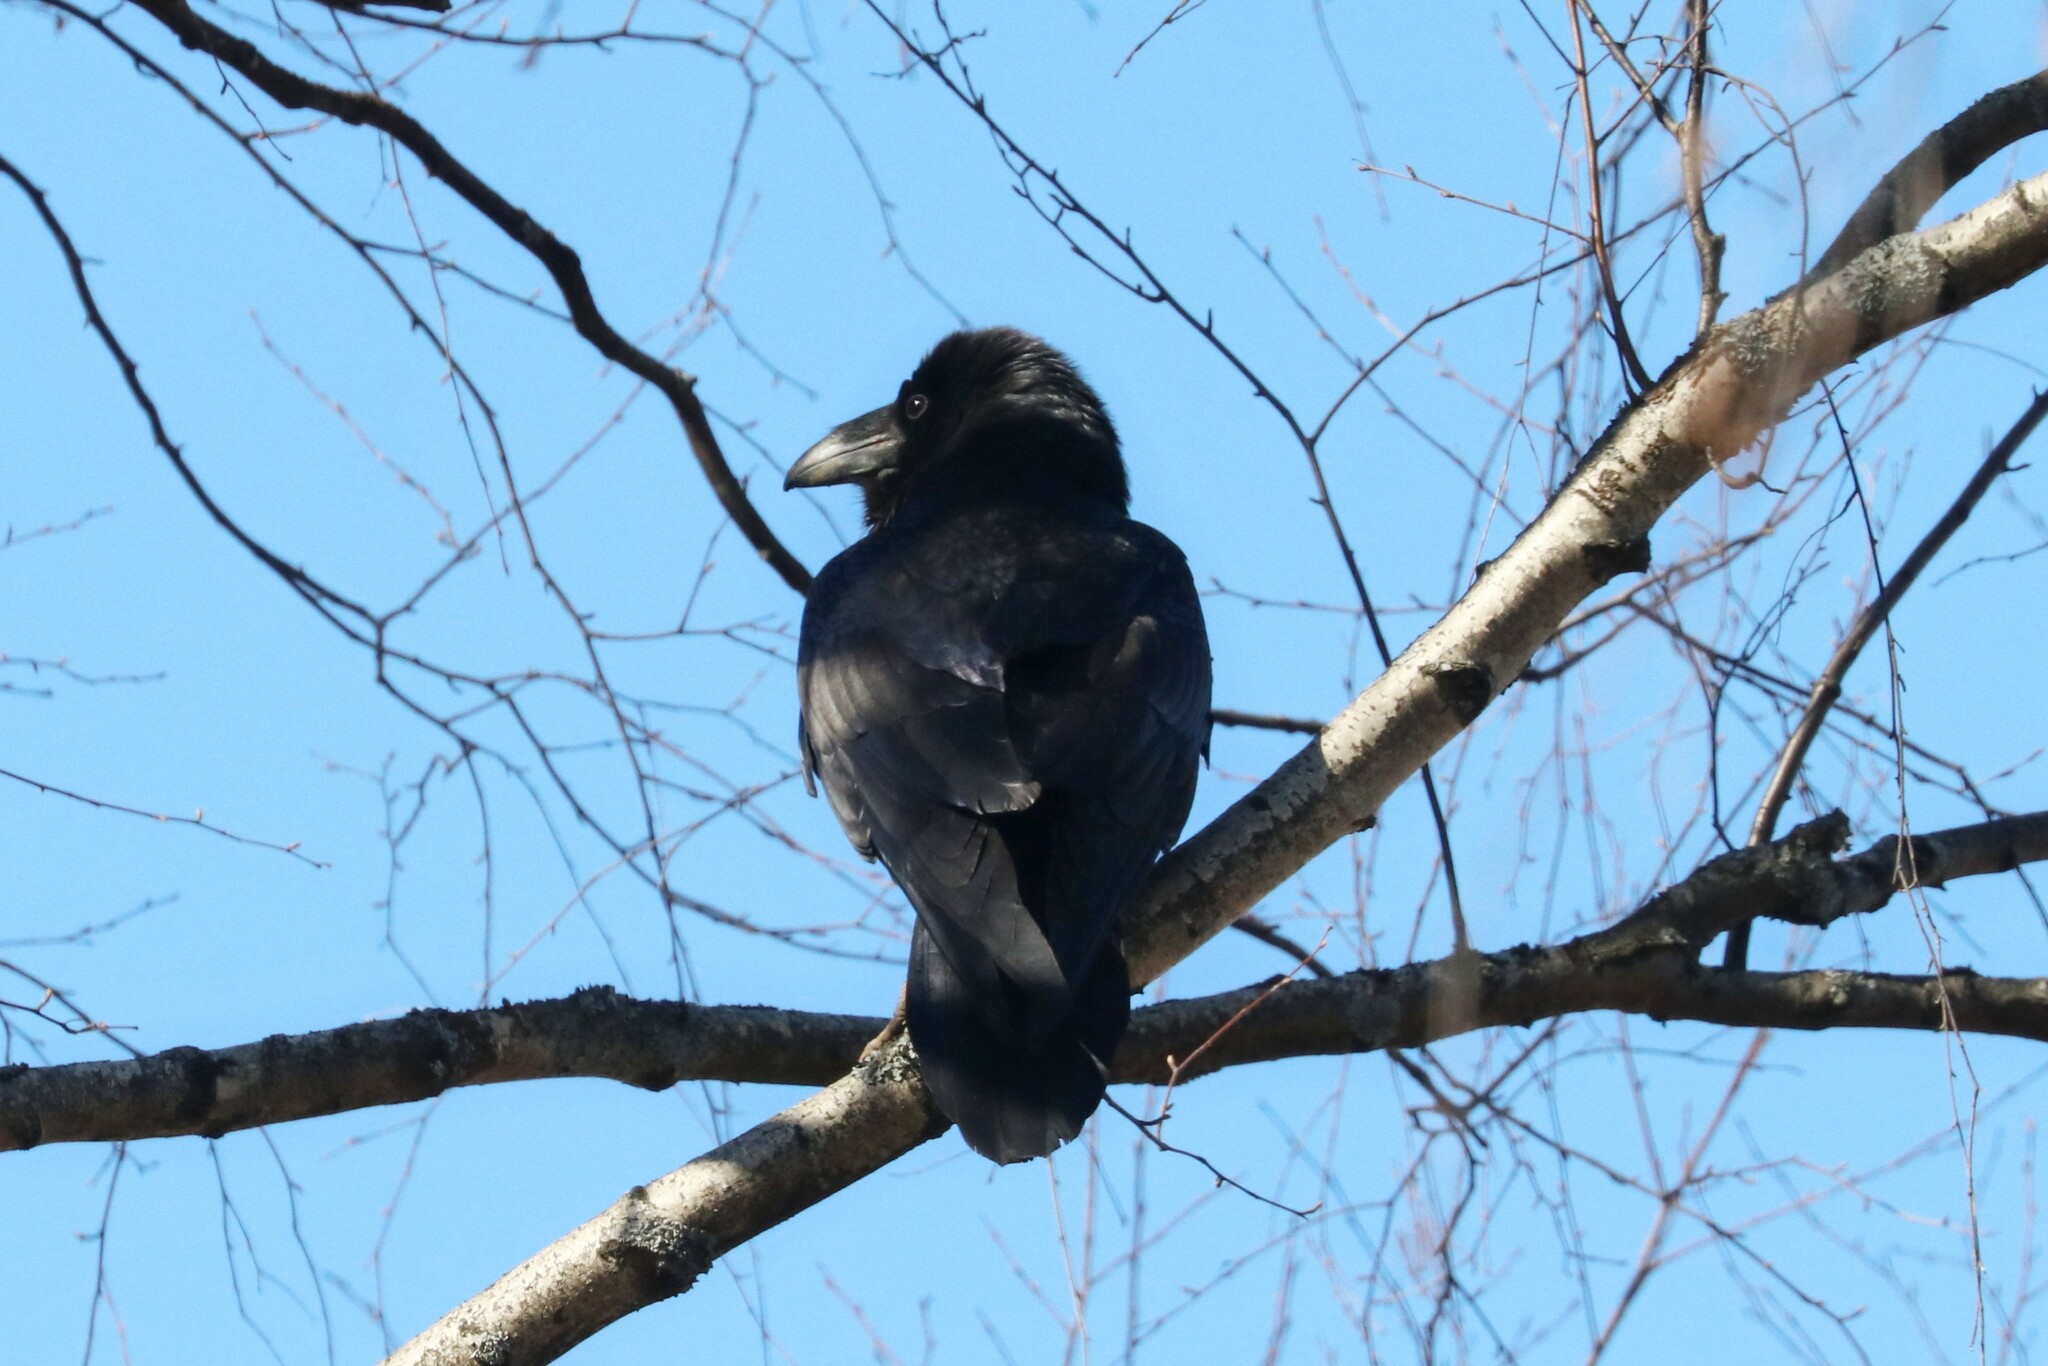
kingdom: Animalia
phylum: Chordata
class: Aves
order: Passeriformes
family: Corvidae
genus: Corvus
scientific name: Corvus corax
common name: Common raven
